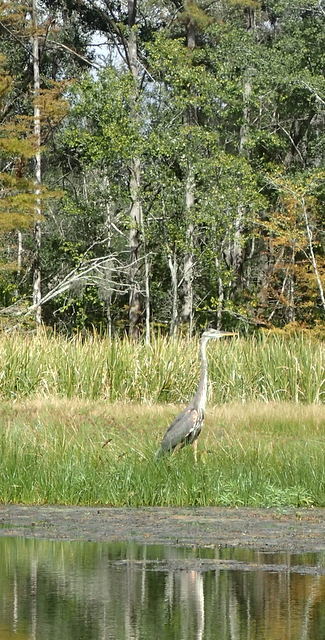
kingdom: Animalia
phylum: Chordata
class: Aves
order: Pelecaniformes
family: Ardeidae
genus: Ardea
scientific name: Ardea herodias
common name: Great blue heron
